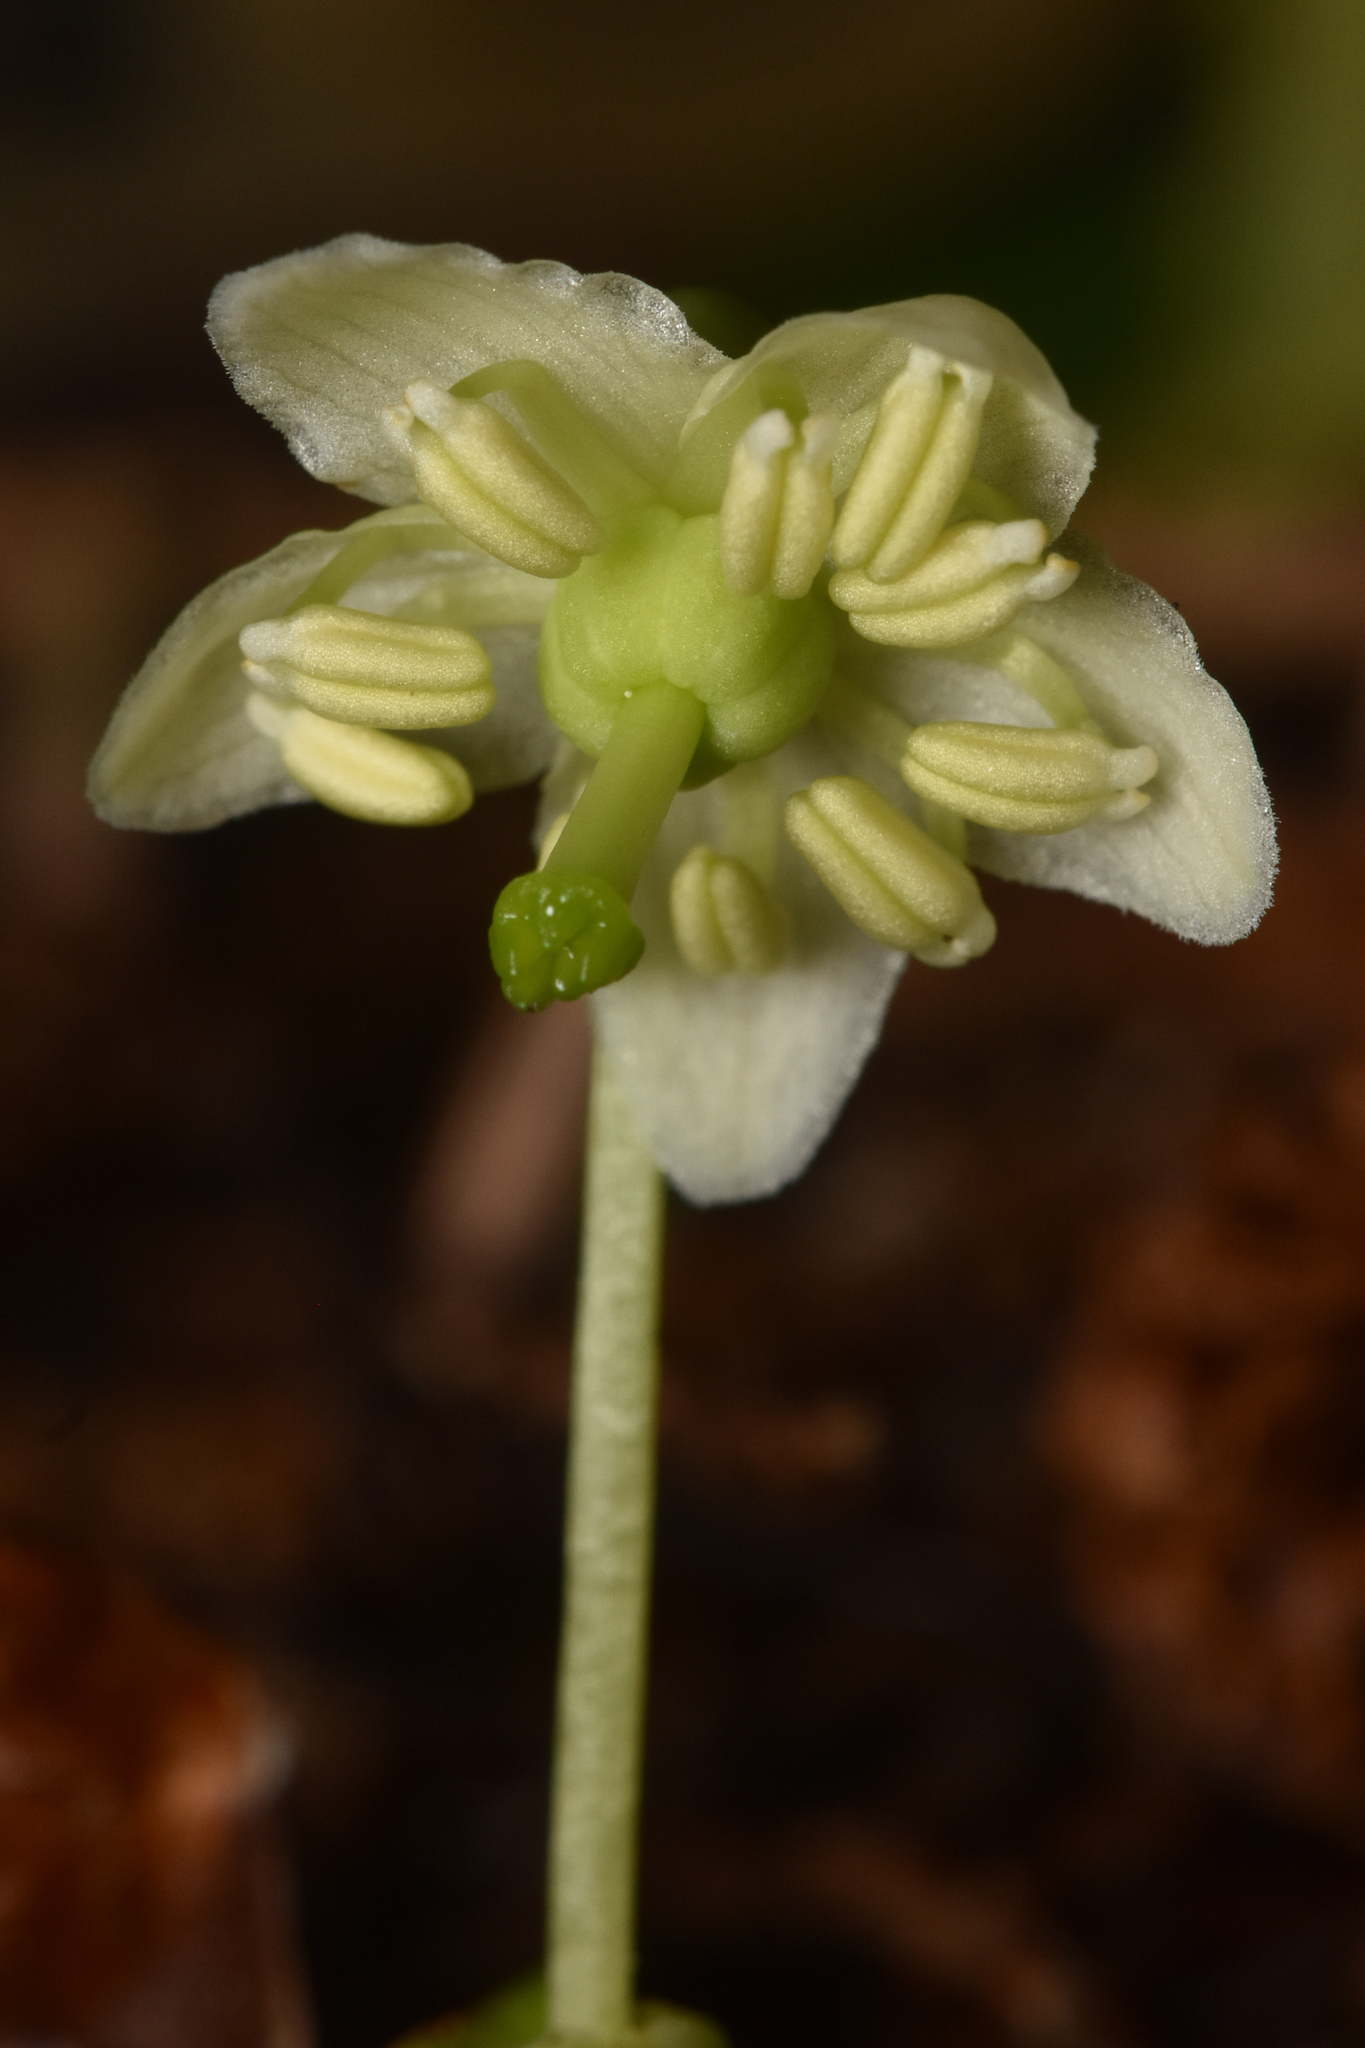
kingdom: Plantae
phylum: Tracheophyta
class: Magnoliopsida
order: Ericales
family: Ericaceae
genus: Moneses
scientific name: Moneses uniflora
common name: One-flowered wintergreen
